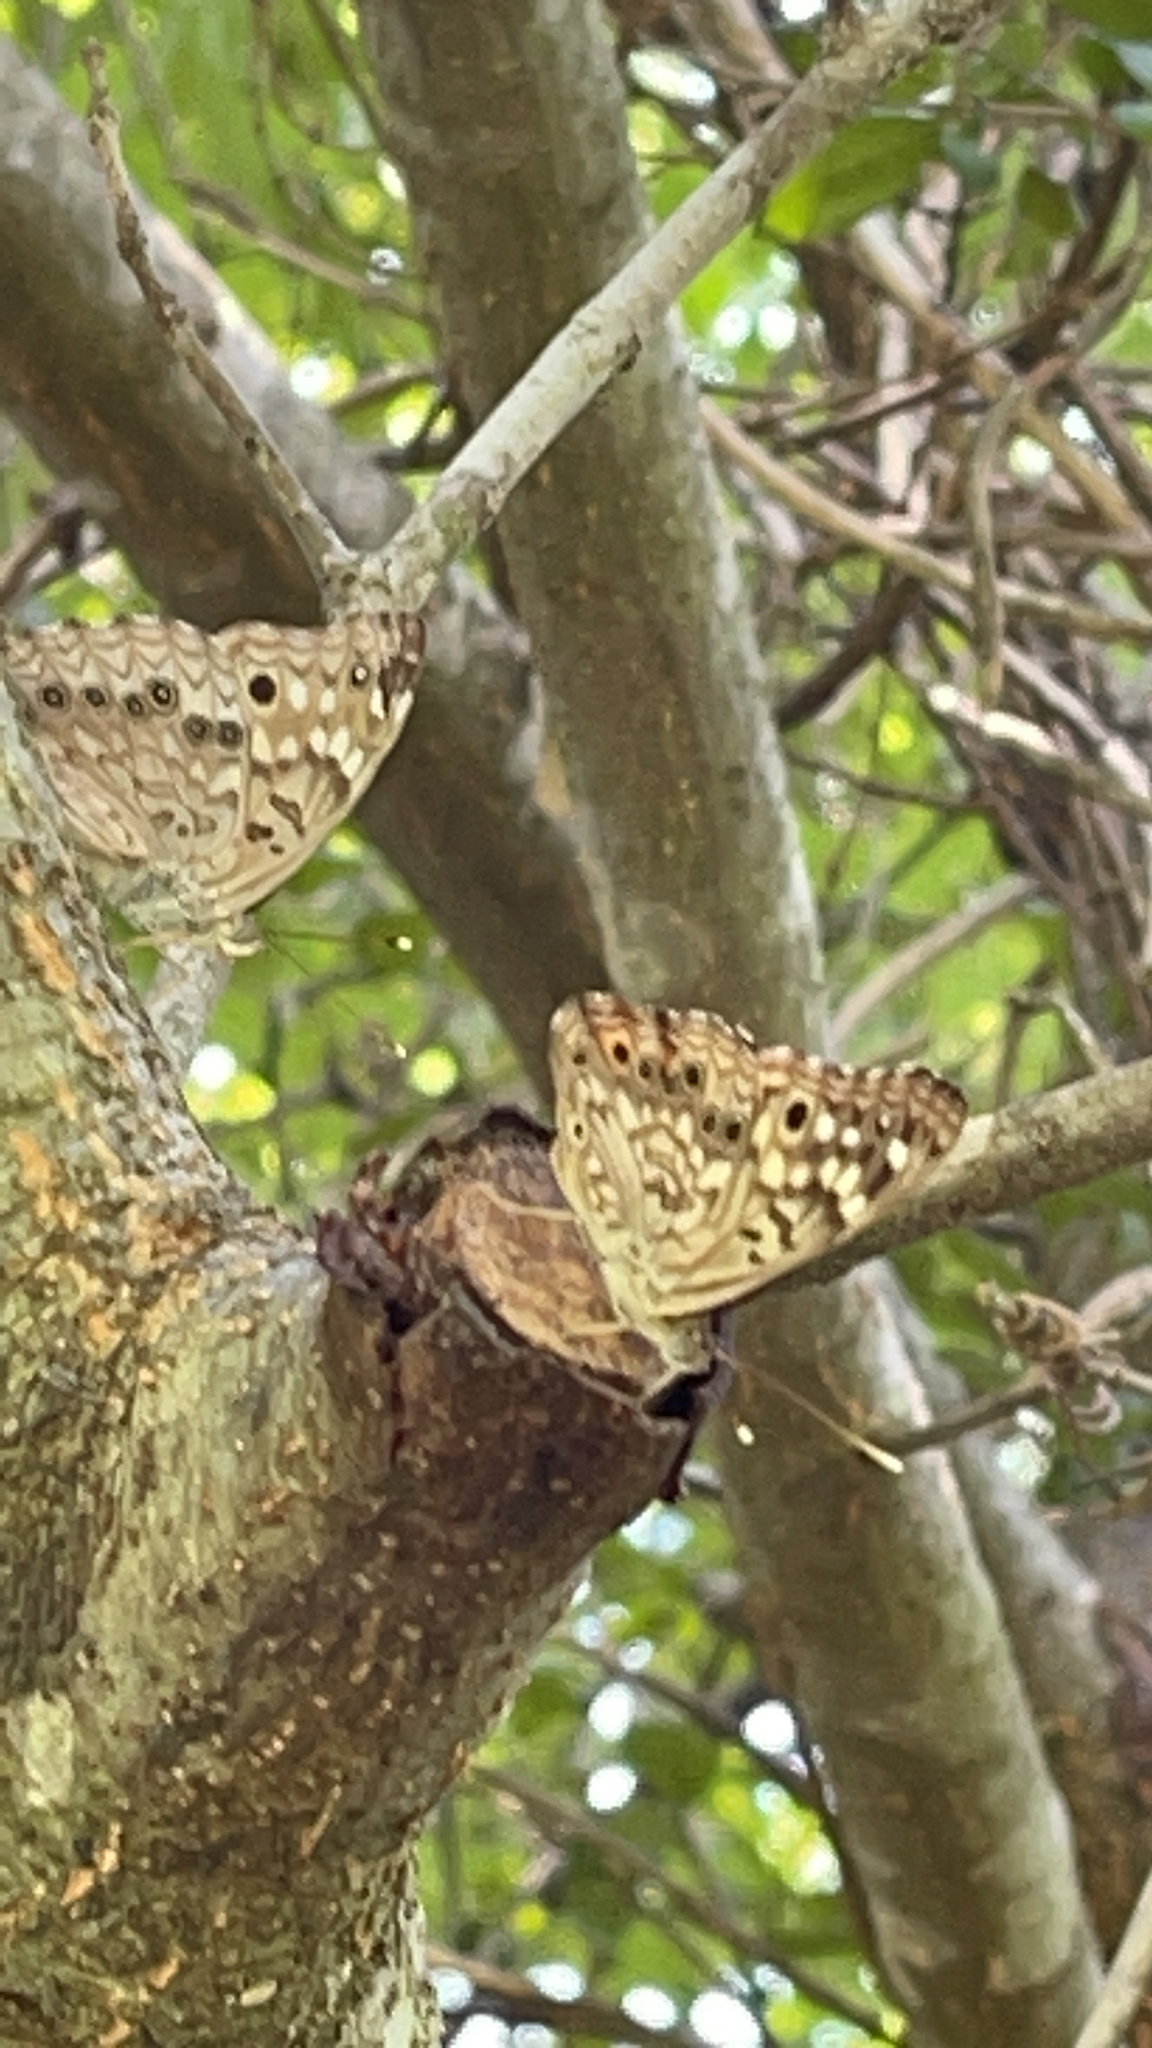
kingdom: Animalia
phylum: Arthropoda
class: Insecta
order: Lepidoptera
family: Nymphalidae
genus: Asterocampa
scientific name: Asterocampa celtis
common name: Hackberry emperor
